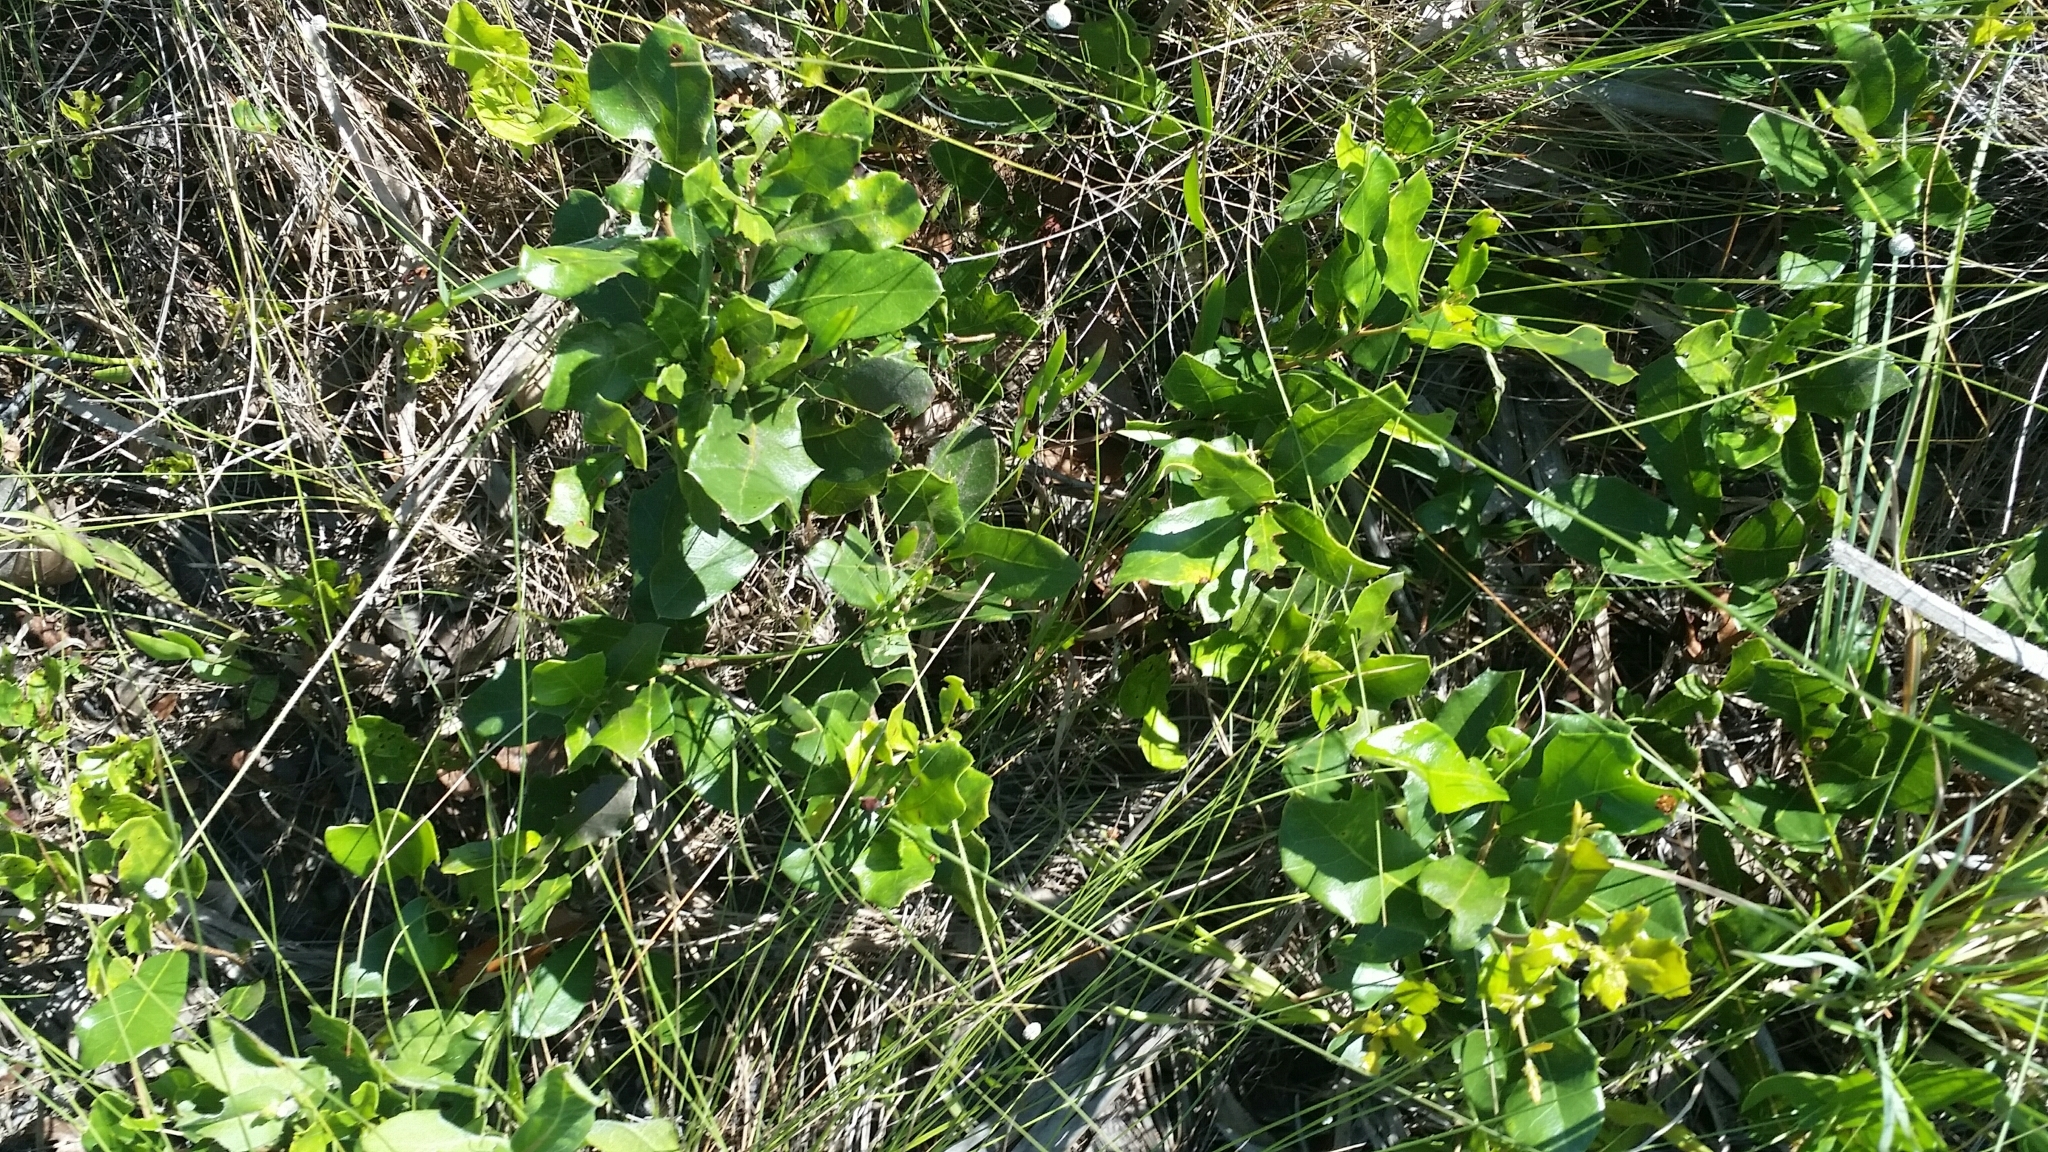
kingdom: Plantae
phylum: Tracheophyta
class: Magnoliopsida
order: Fagales
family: Fagaceae
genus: Quercus
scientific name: Quercus minima
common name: Dwarf live oak
